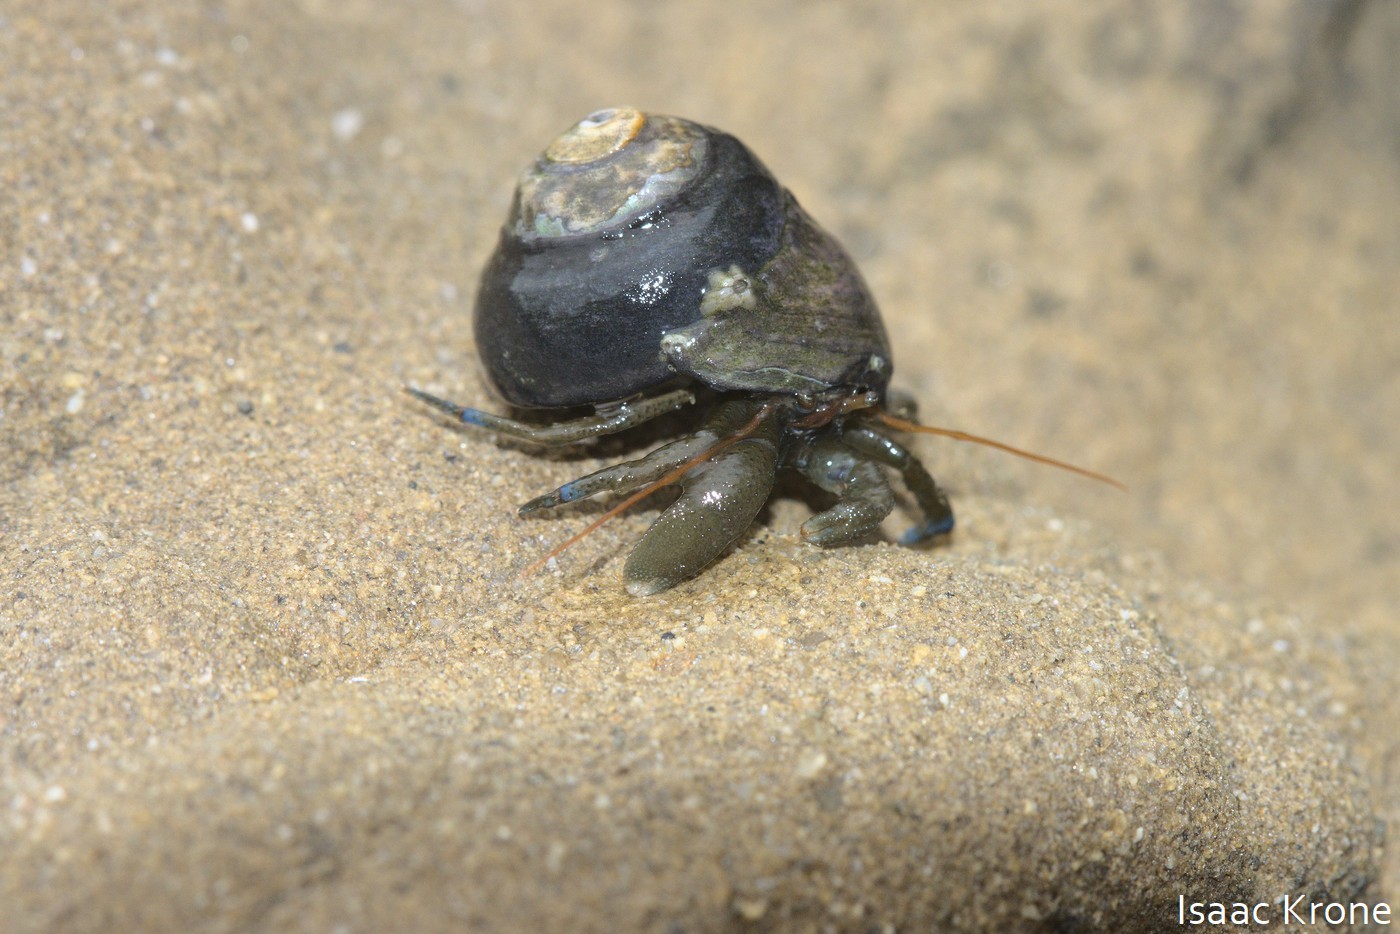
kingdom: Animalia
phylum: Arthropoda
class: Malacostraca
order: Decapoda
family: Paguridae
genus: Pagurus
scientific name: Pagurus samuelis
